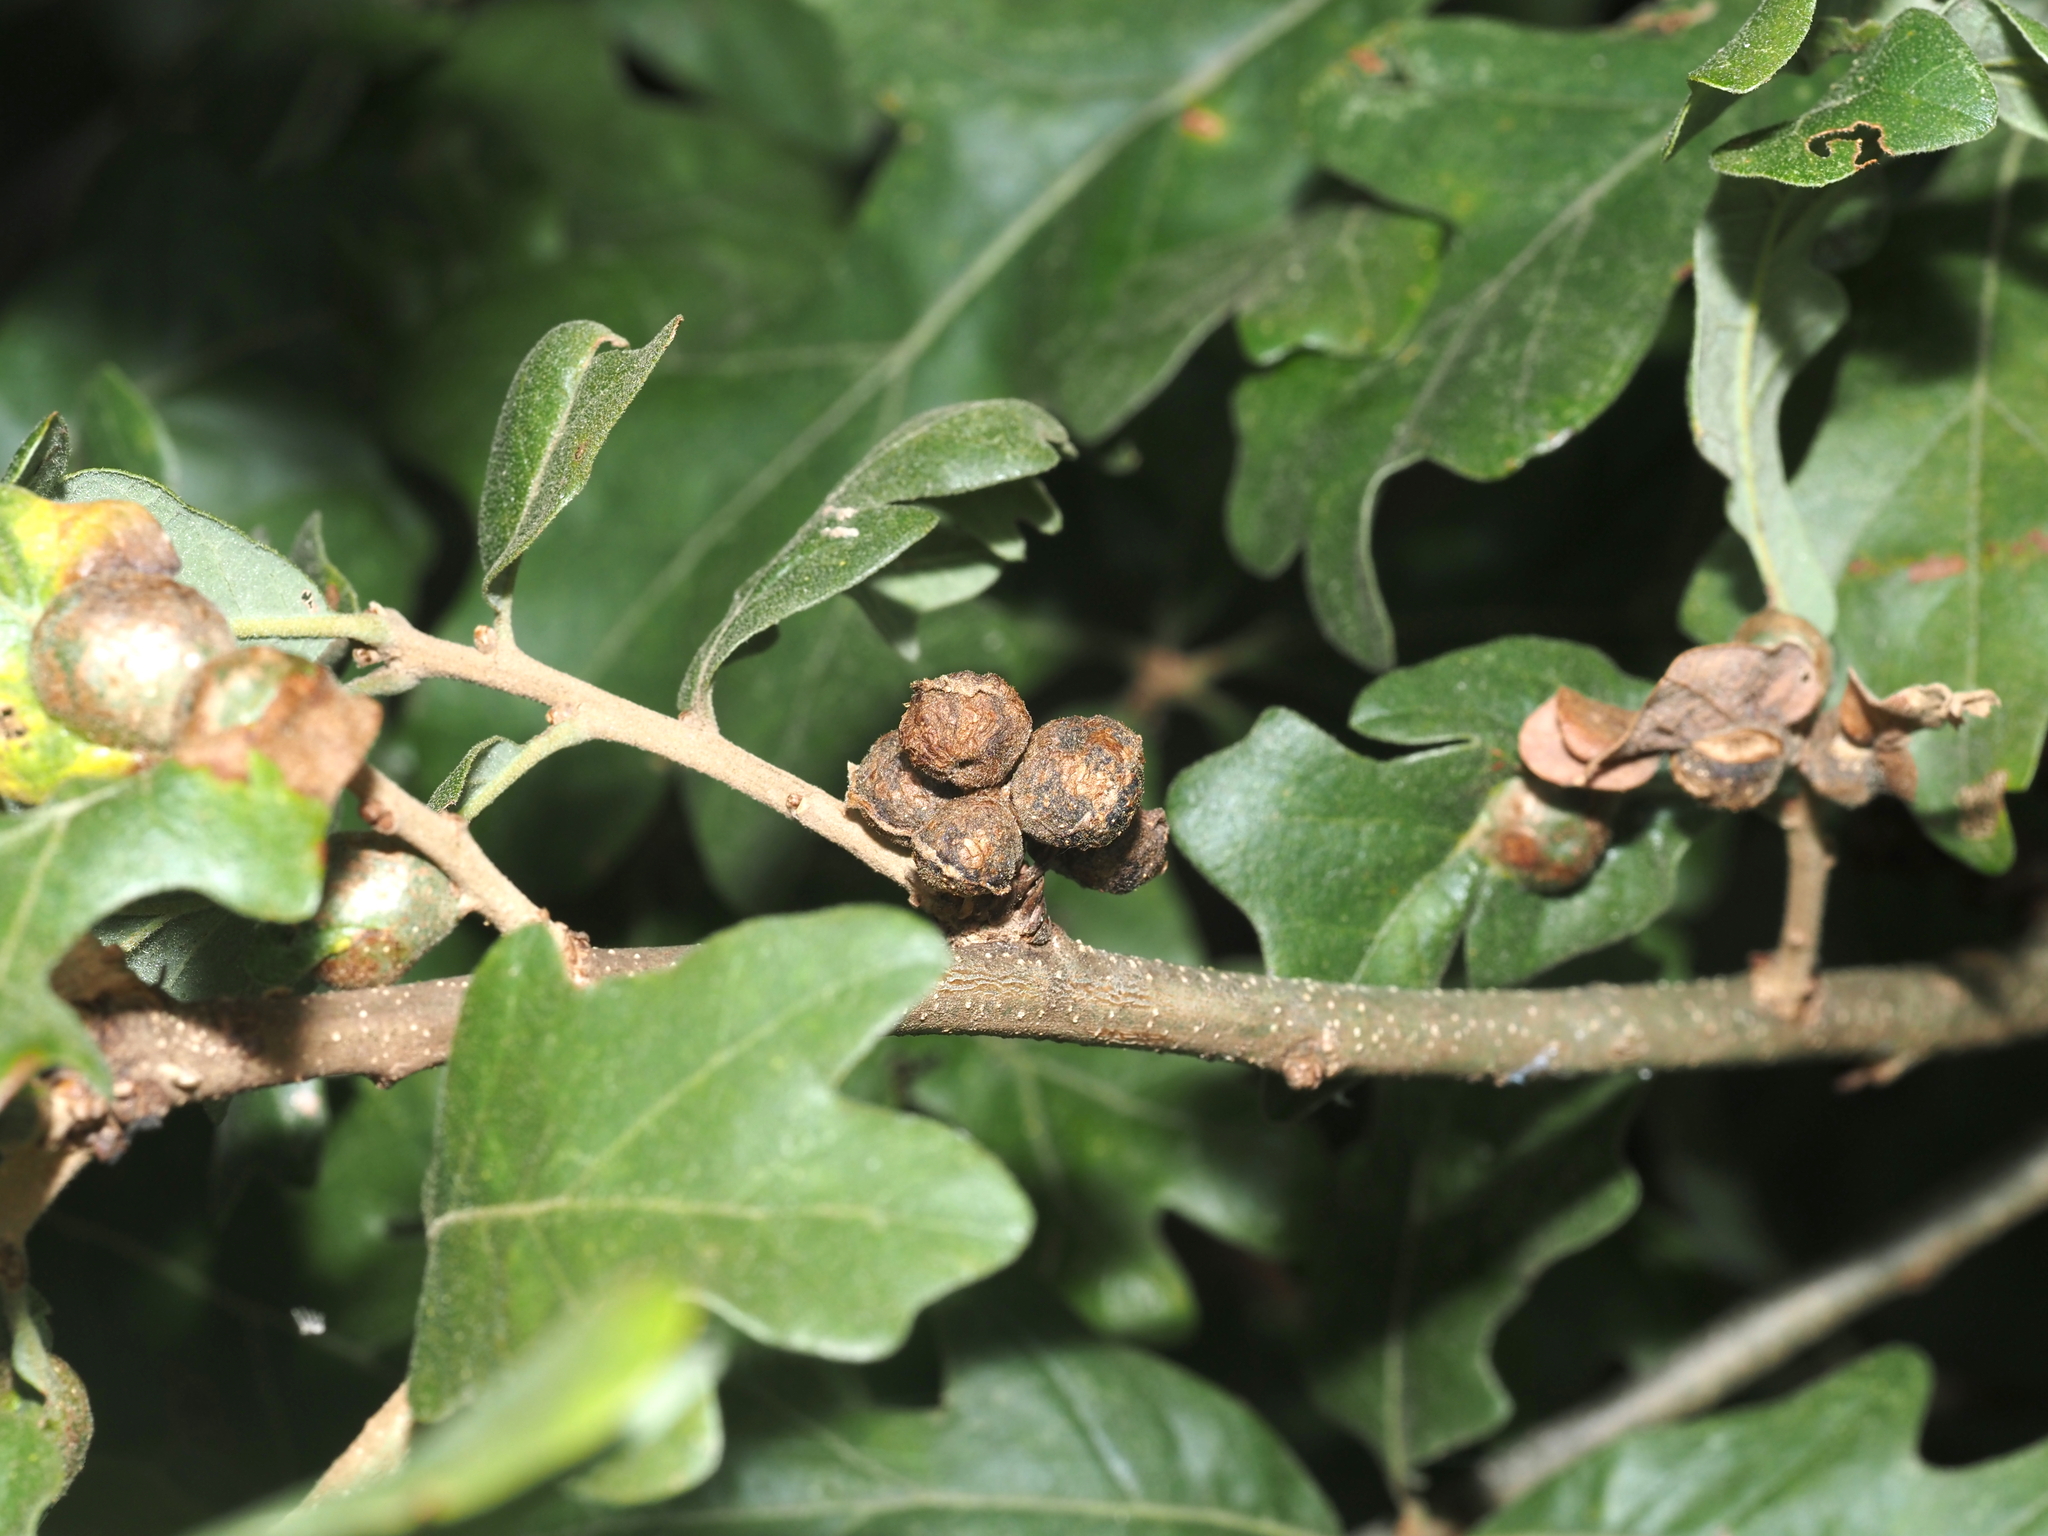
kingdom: Animalia
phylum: Arthropoda
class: Insecta
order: Hymenoptera
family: Cynipidae
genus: Andricus
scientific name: Andricus
